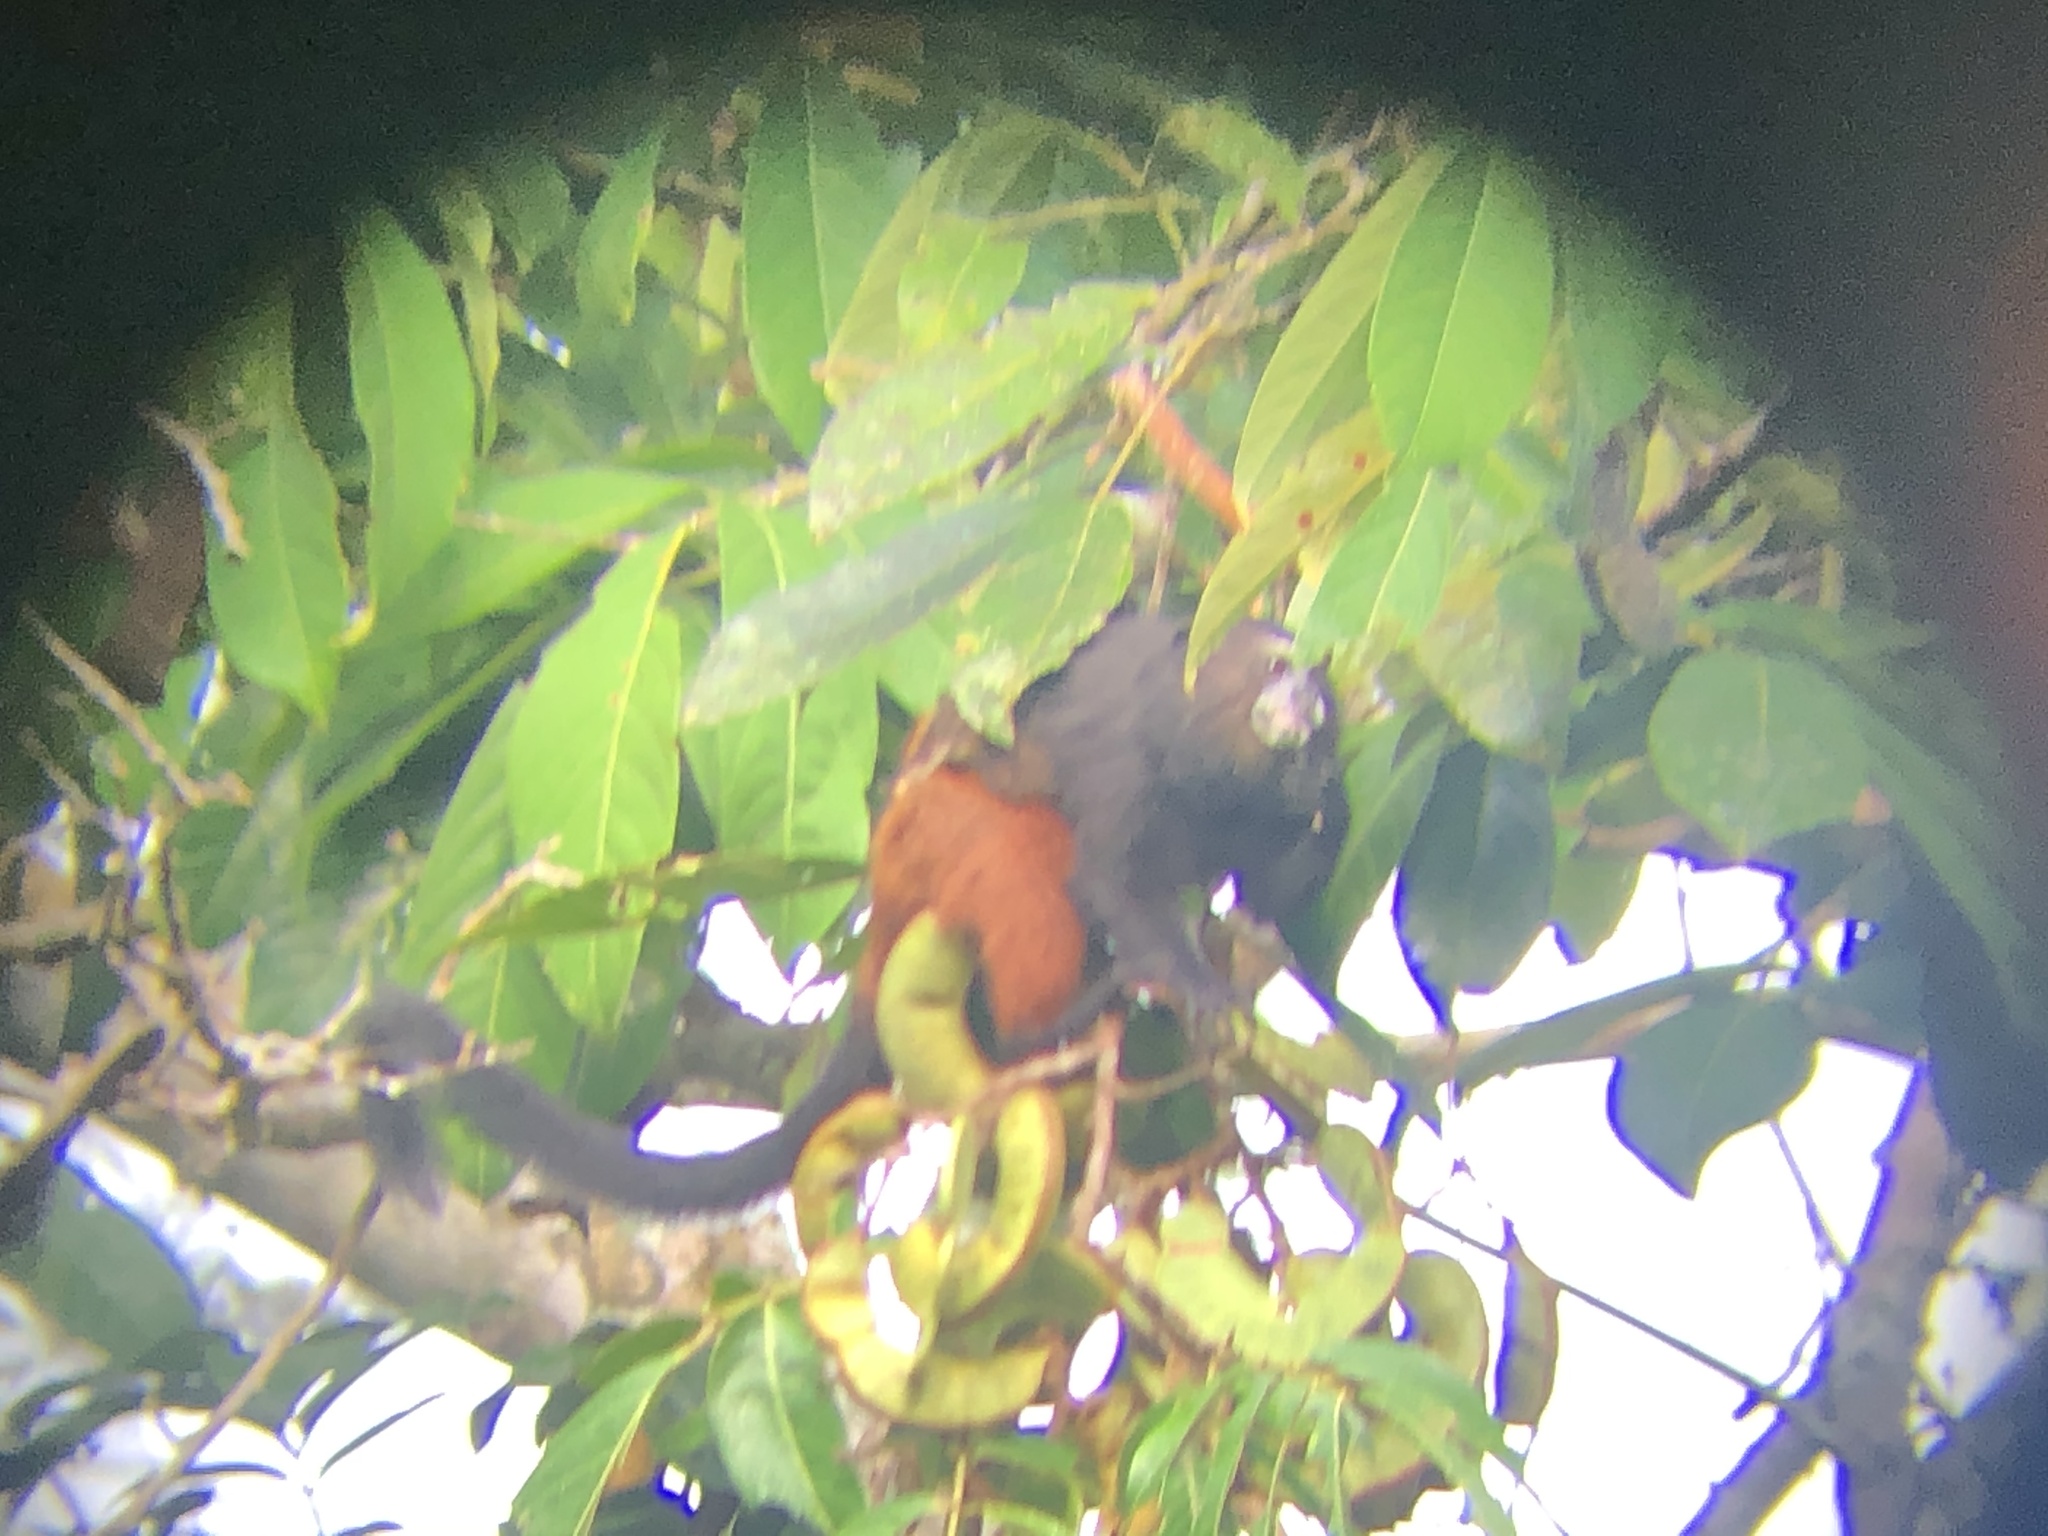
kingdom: Animalia
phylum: Chordata
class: Mammalia
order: Primates
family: Callitrichidae
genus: Leontocebus
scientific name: Leontocebus weddelli
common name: Weddell's saddle-back tamarin
